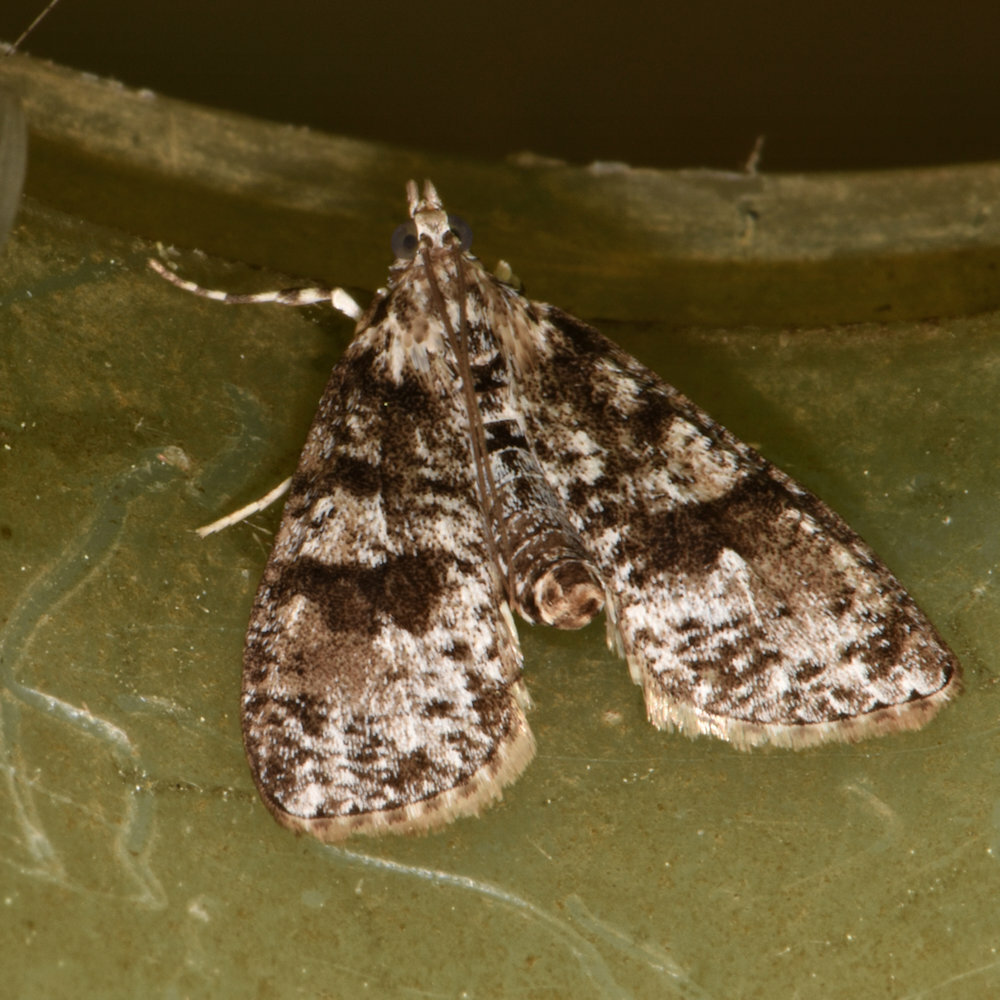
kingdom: Animalia
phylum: Arthropoda
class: Insecta
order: Lepidoptera
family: Crambidae
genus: Palpita
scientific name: Palpita magniferalis
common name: Splendid palpita moth
